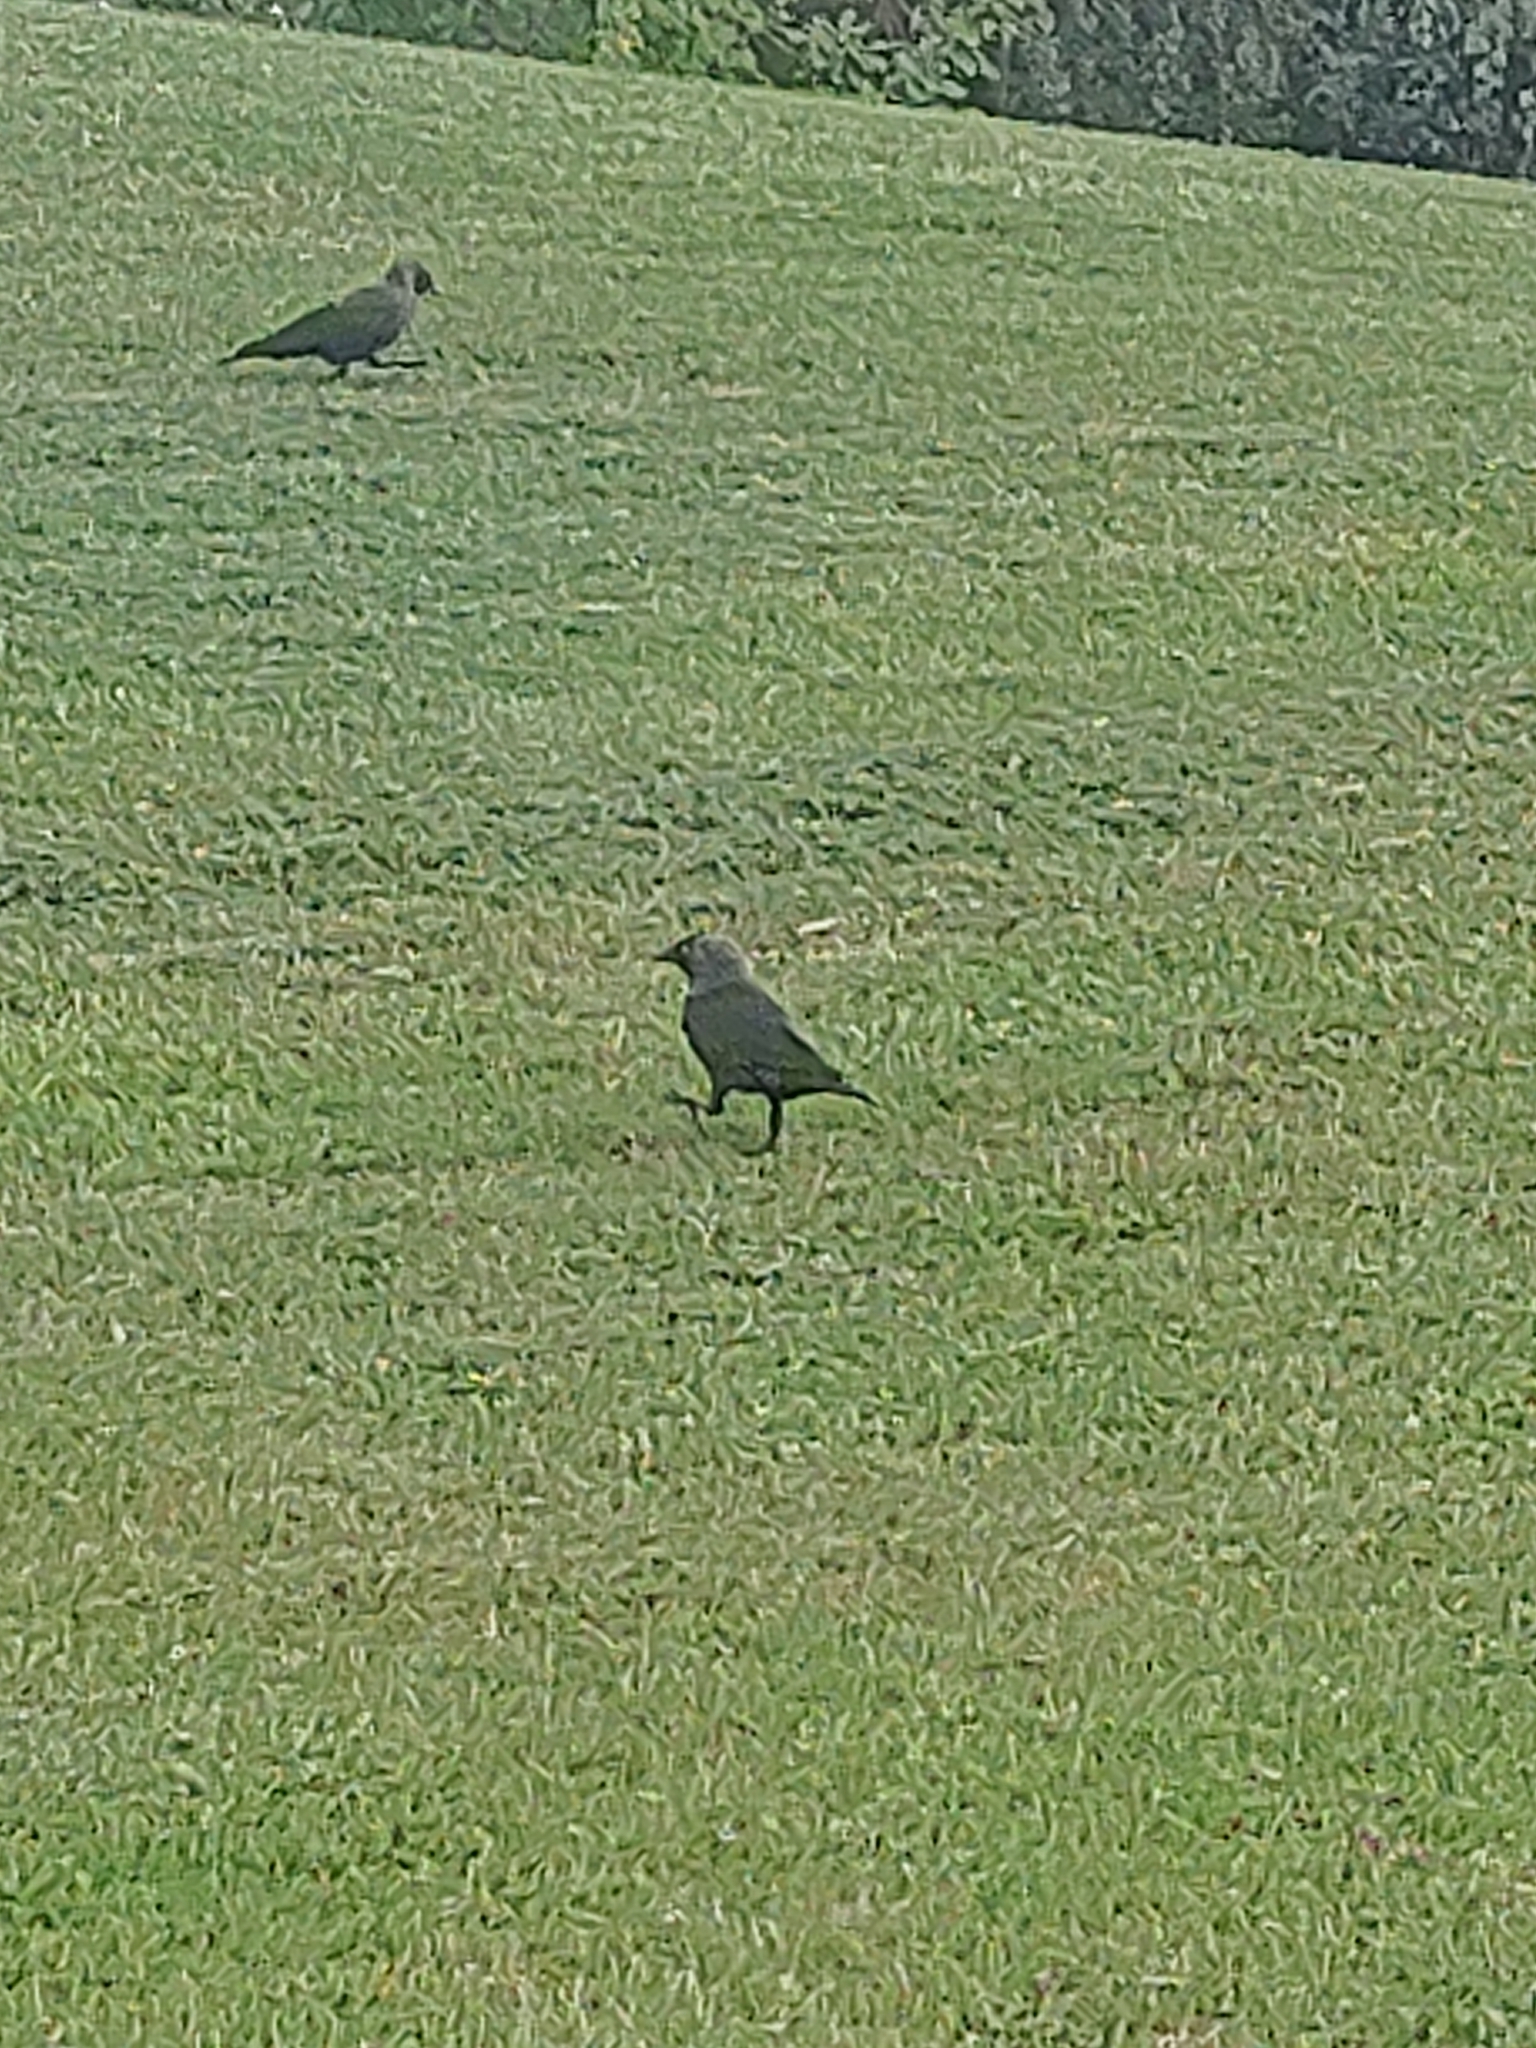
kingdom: Animalia
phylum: Chordata
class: Aves
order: Passeriformes
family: Corvidae
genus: Coloeus
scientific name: Coloeus monedula
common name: Western jackdaw
